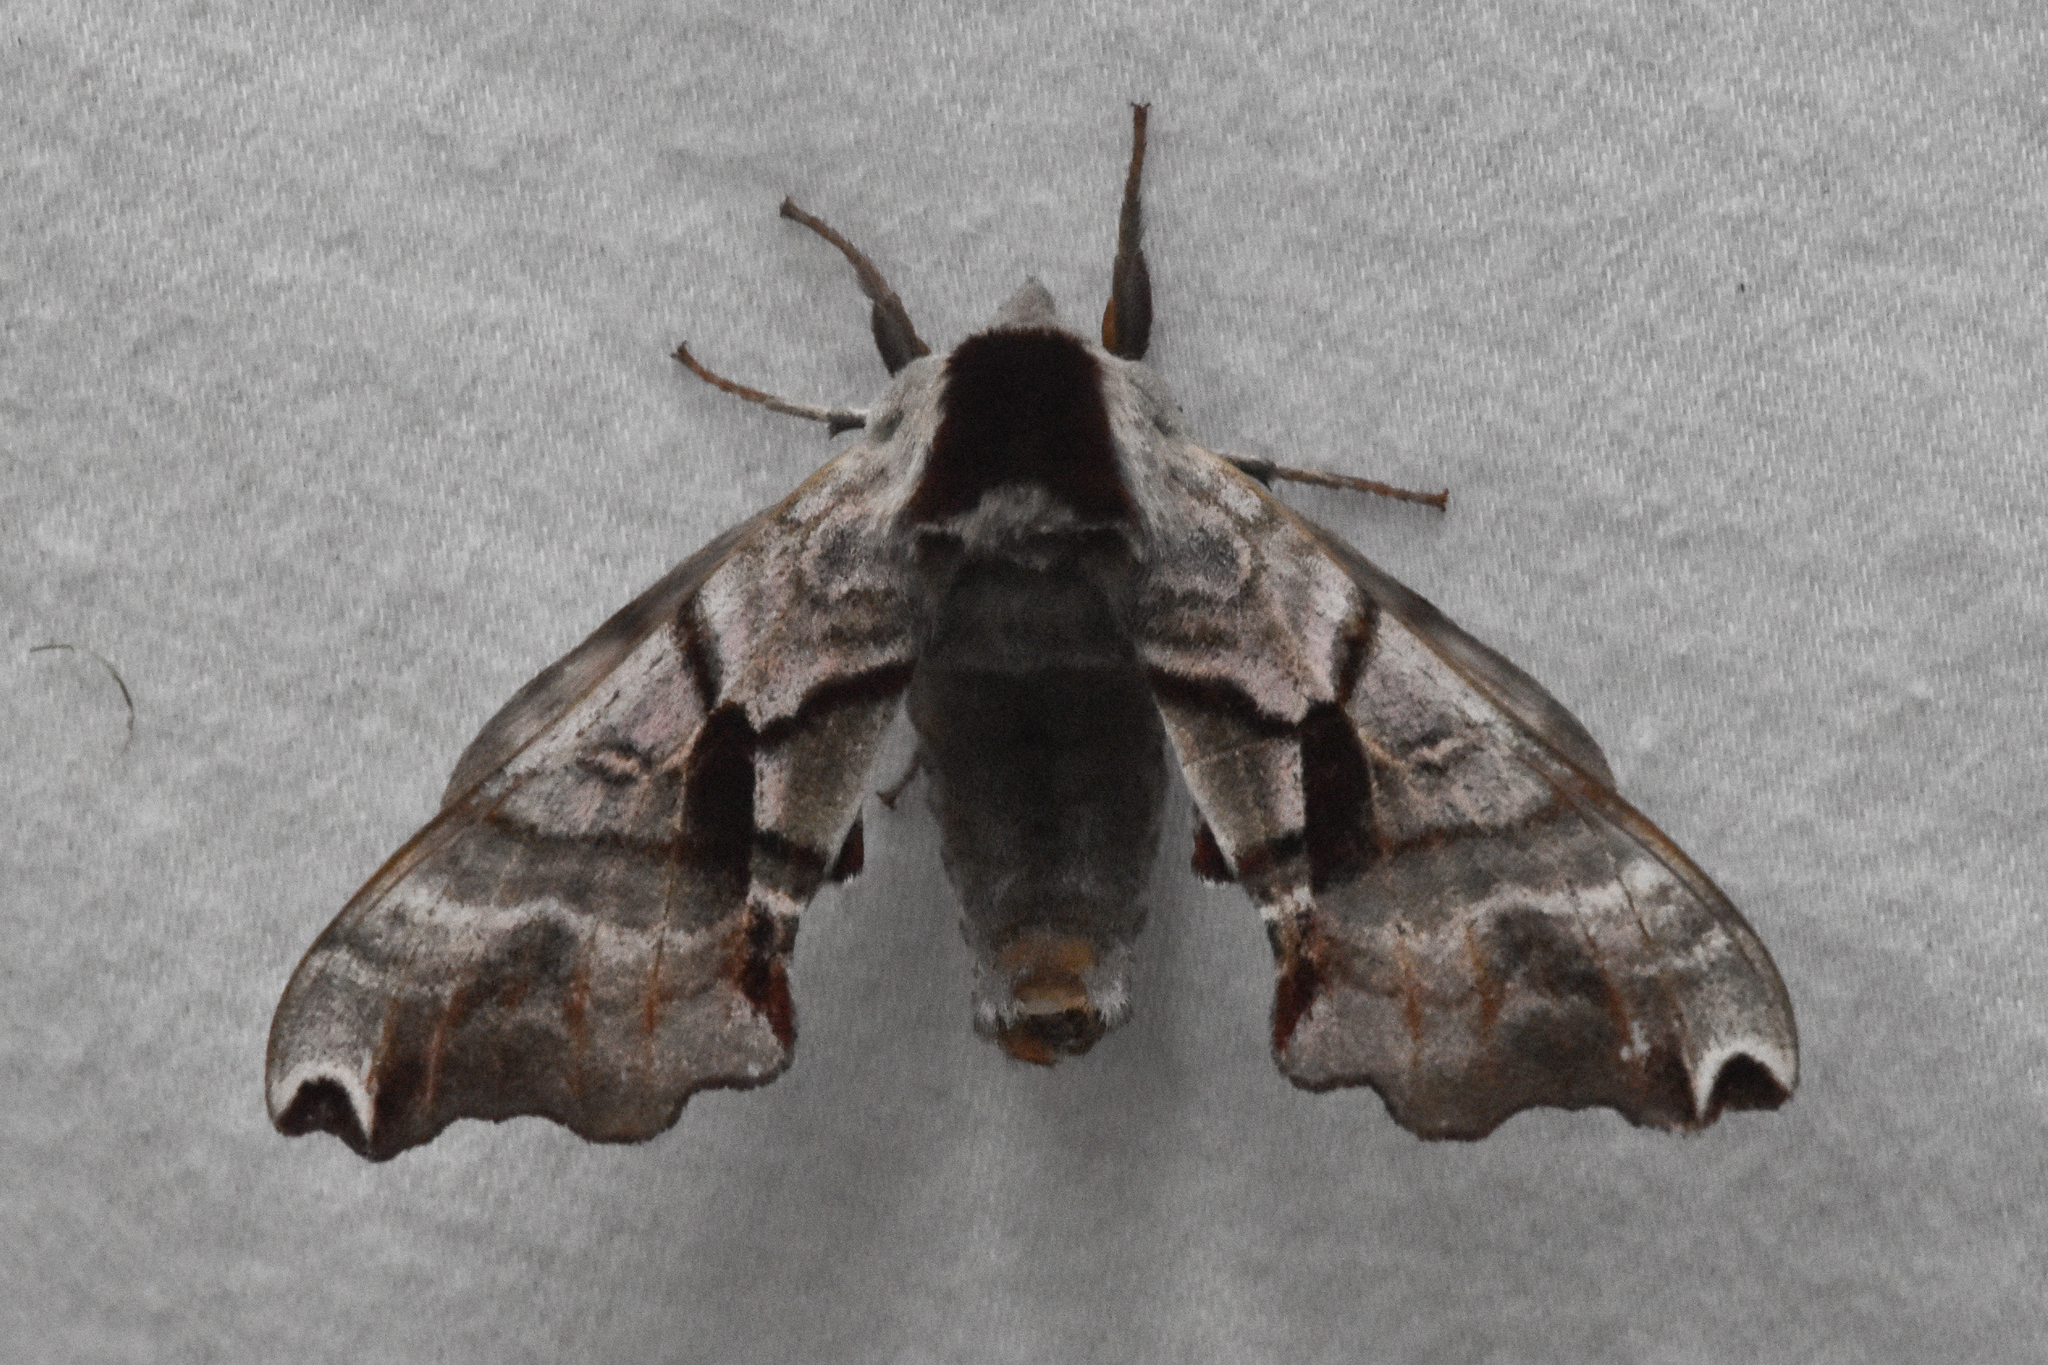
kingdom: Animalia
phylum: Arthropoda
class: Insecta
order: Lepidoptera
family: Sphingidae
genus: Smerinthus
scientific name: Smerinthus jamaicensis
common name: Twin spotted sphinx
